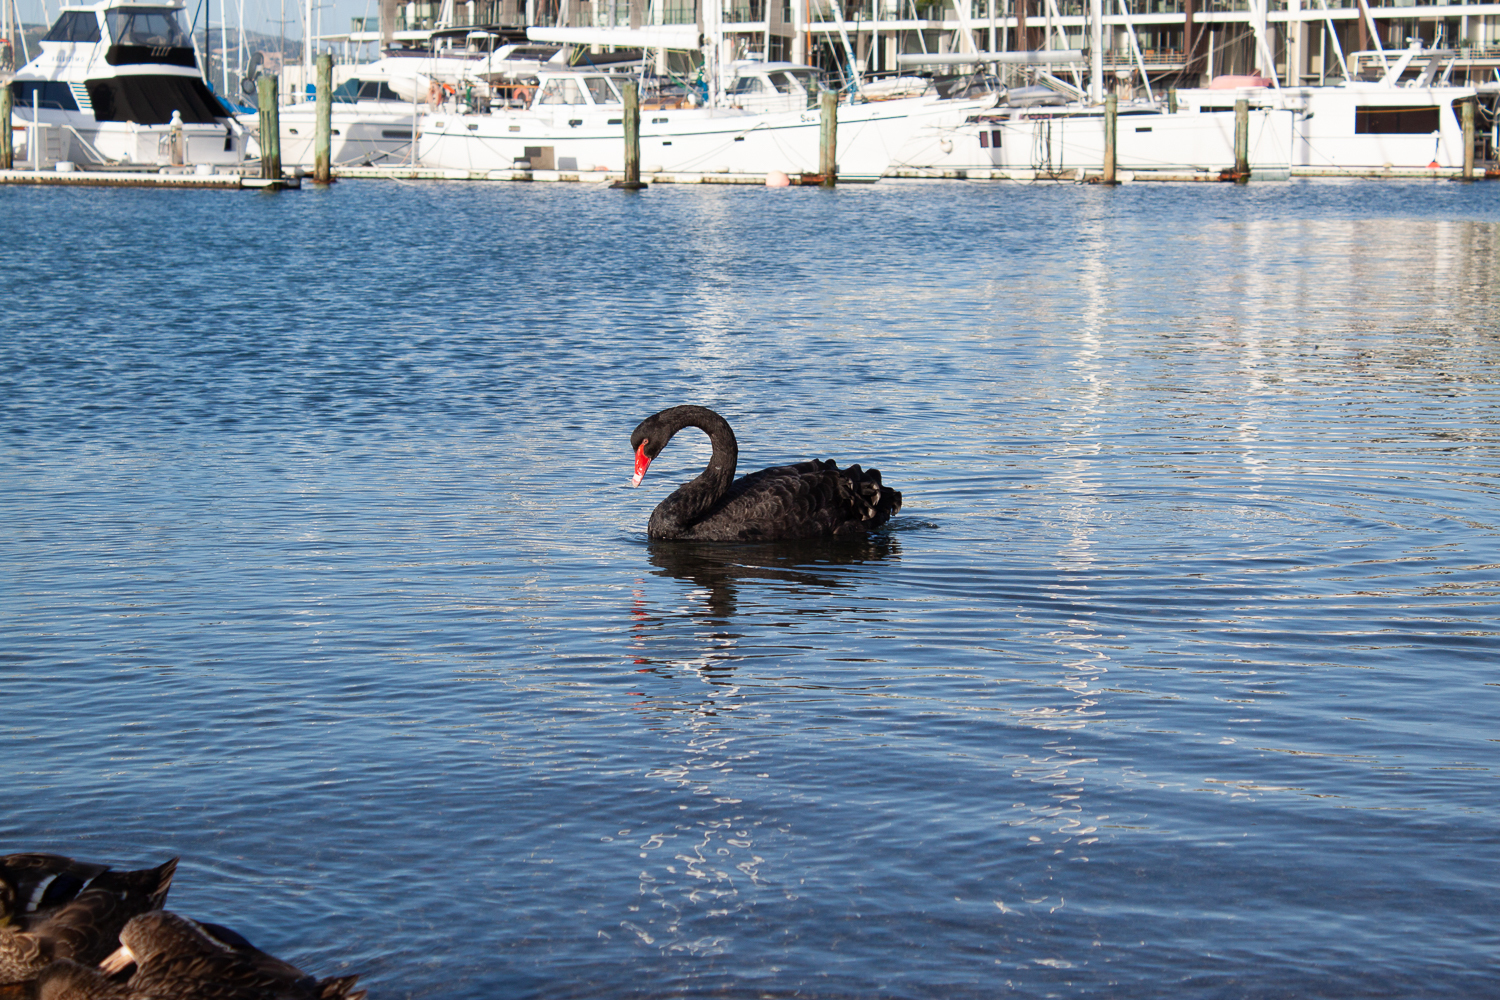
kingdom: Animalia
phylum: Chordata
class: Aves
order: Anseriformes
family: Anatidae
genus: Cygnus
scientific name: Cygnus atratus
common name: Black swan
